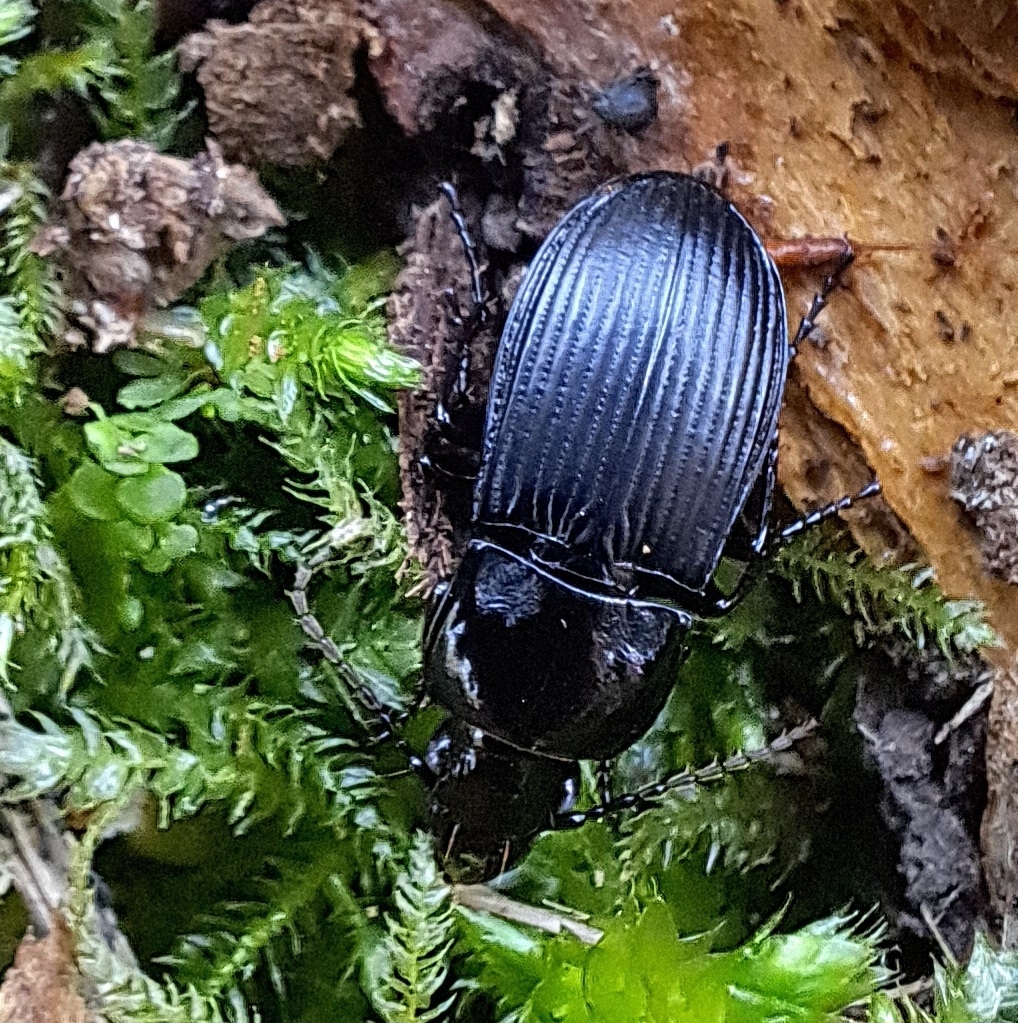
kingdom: Animalia
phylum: Arthropoda
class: Insecta
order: Coleoptera
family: Carabidae
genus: Abax
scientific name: Abax parallelepipedus
